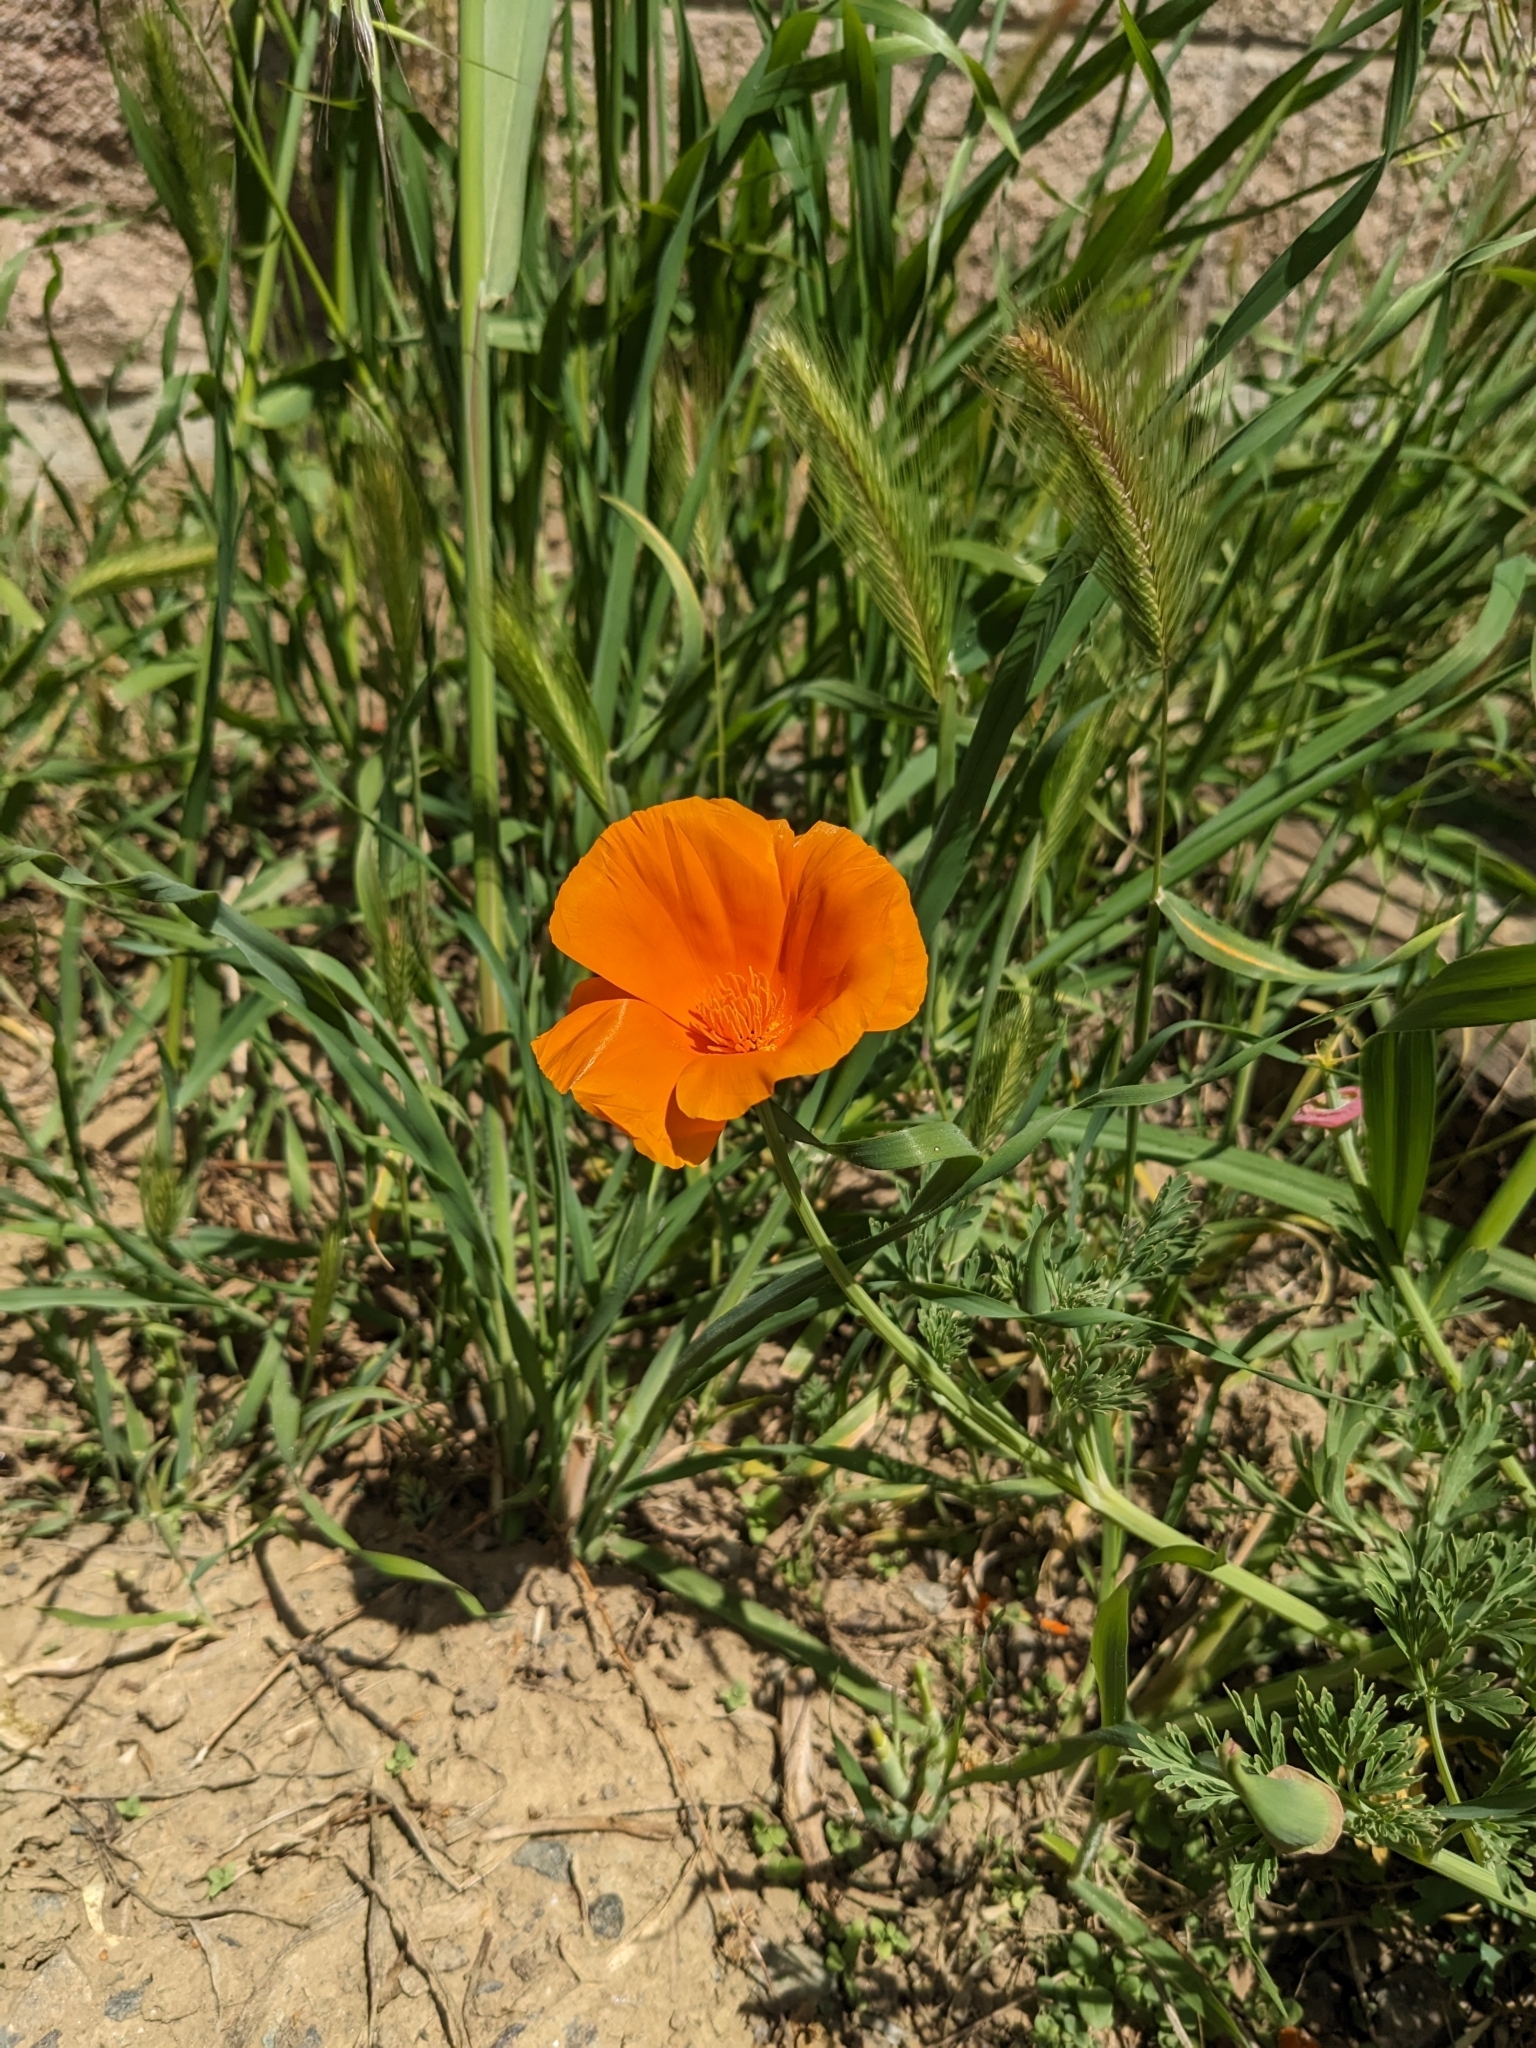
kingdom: Plantae
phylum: Tracheophyta
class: Magnoliopsida
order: Ranunculales
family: Papaveraceae
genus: Eschscholzia
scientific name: Eschscholzia californica
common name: California poppy
